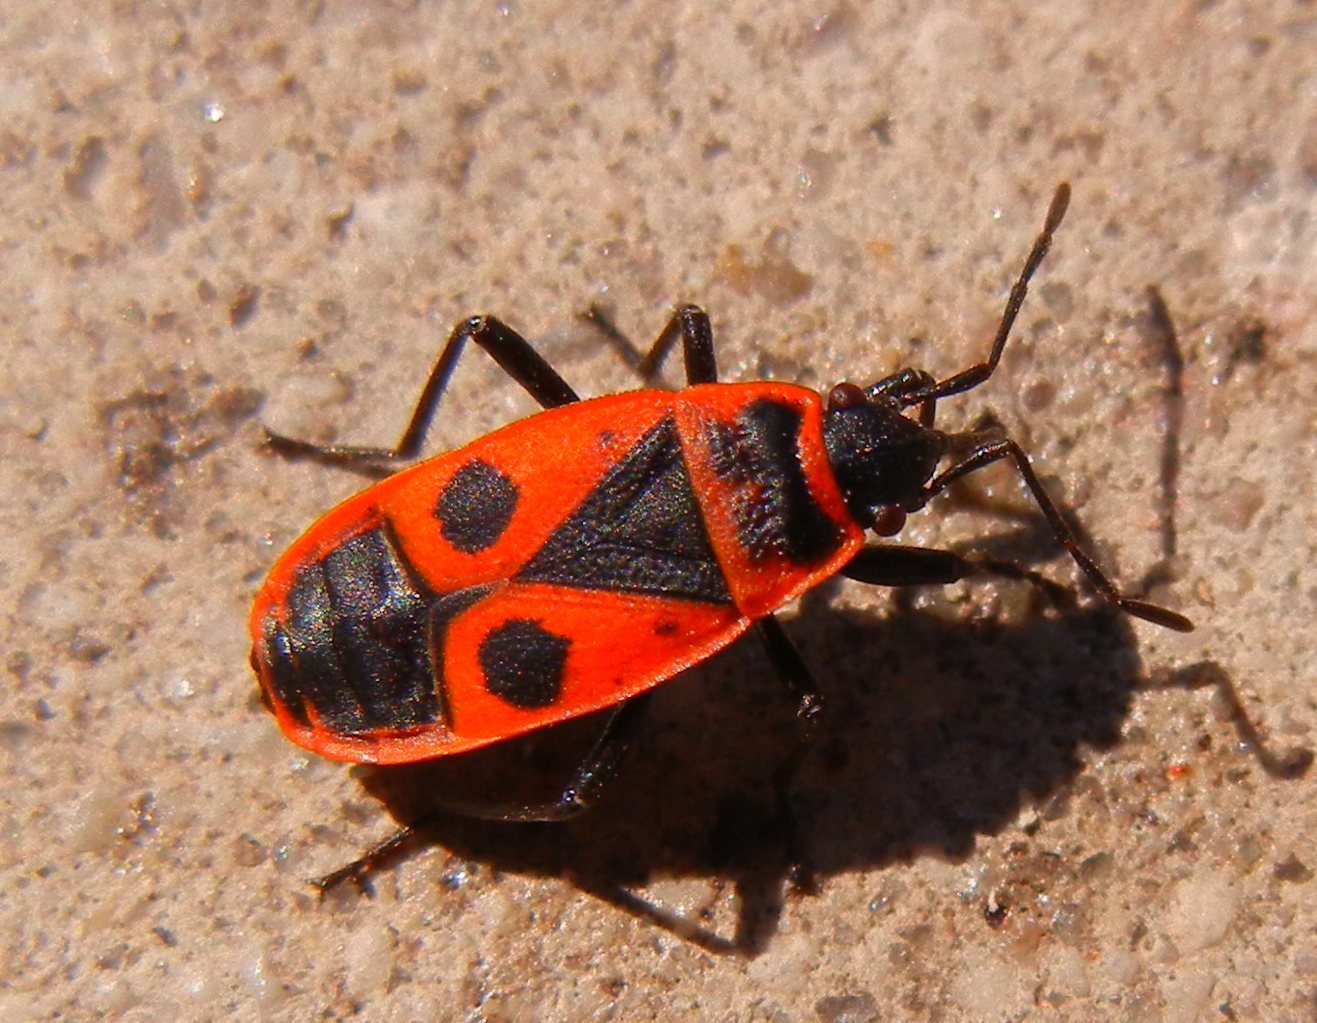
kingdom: Animalia
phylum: Arthropoda
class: Insecta
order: Hemiptera
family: Pyrrhocoridae
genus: Pyrrhocoris
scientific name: Pyrrhocoris apterus
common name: Firebug
